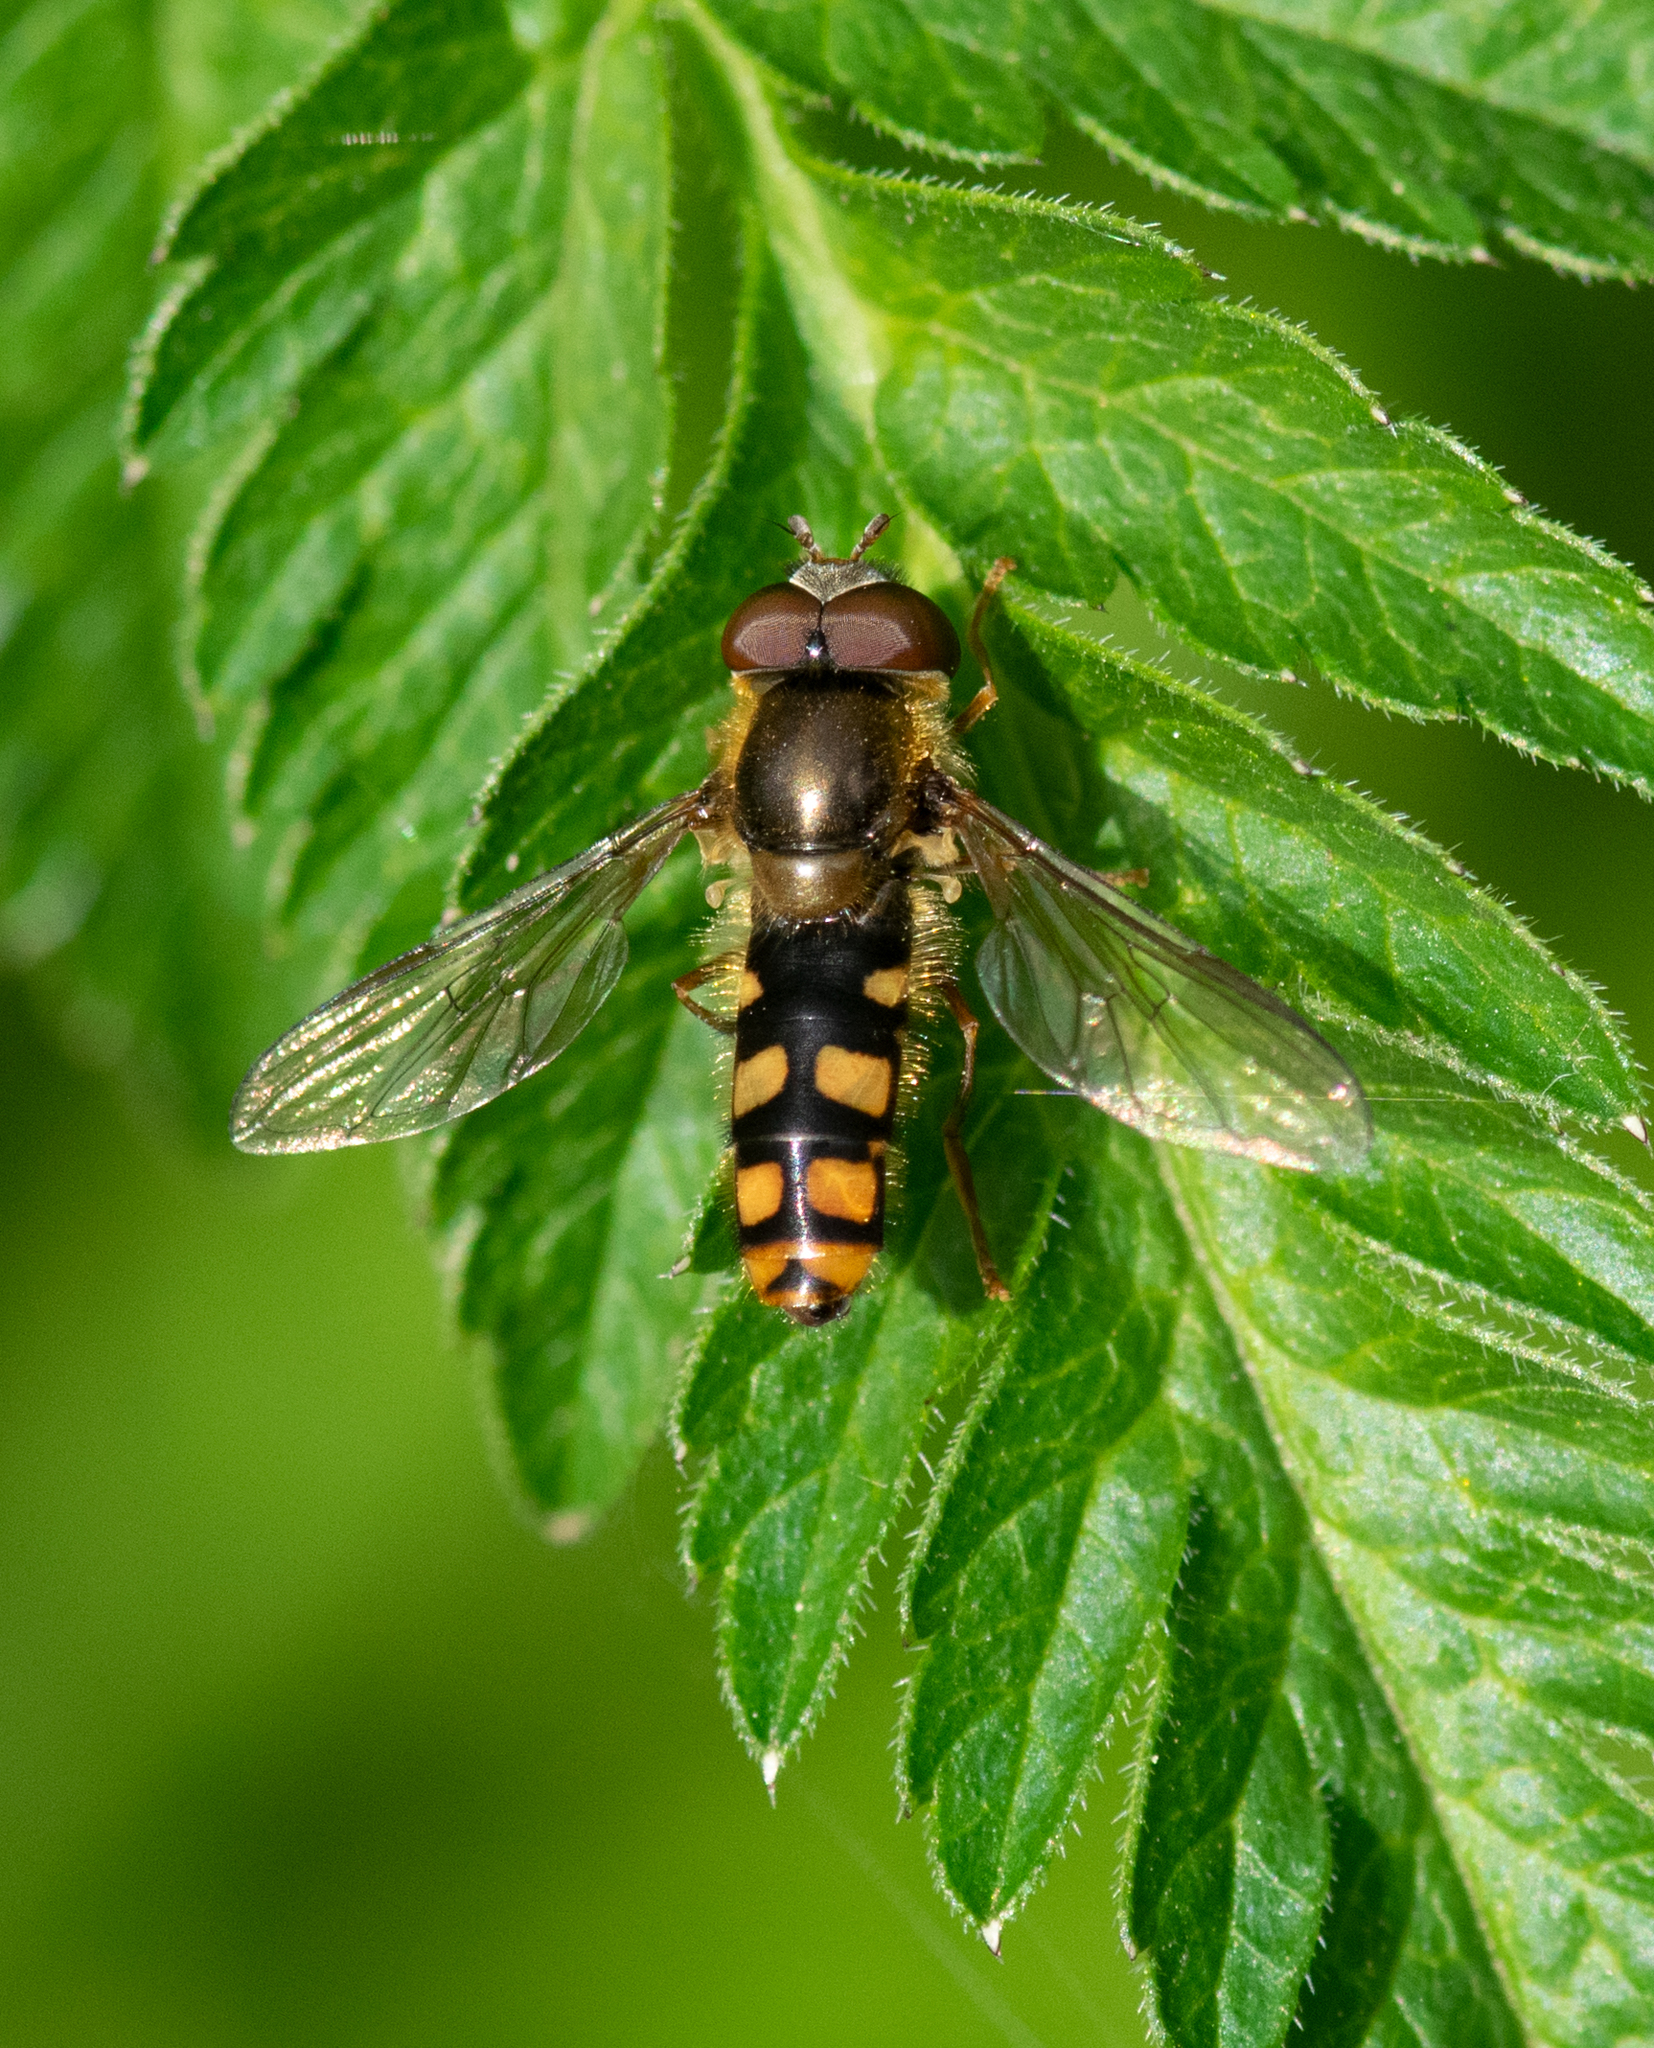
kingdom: Animalia
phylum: Arthropoda
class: Insecta
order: Diptera
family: Syrphidae
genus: Epistrophella
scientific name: Epistrophella euchromus
